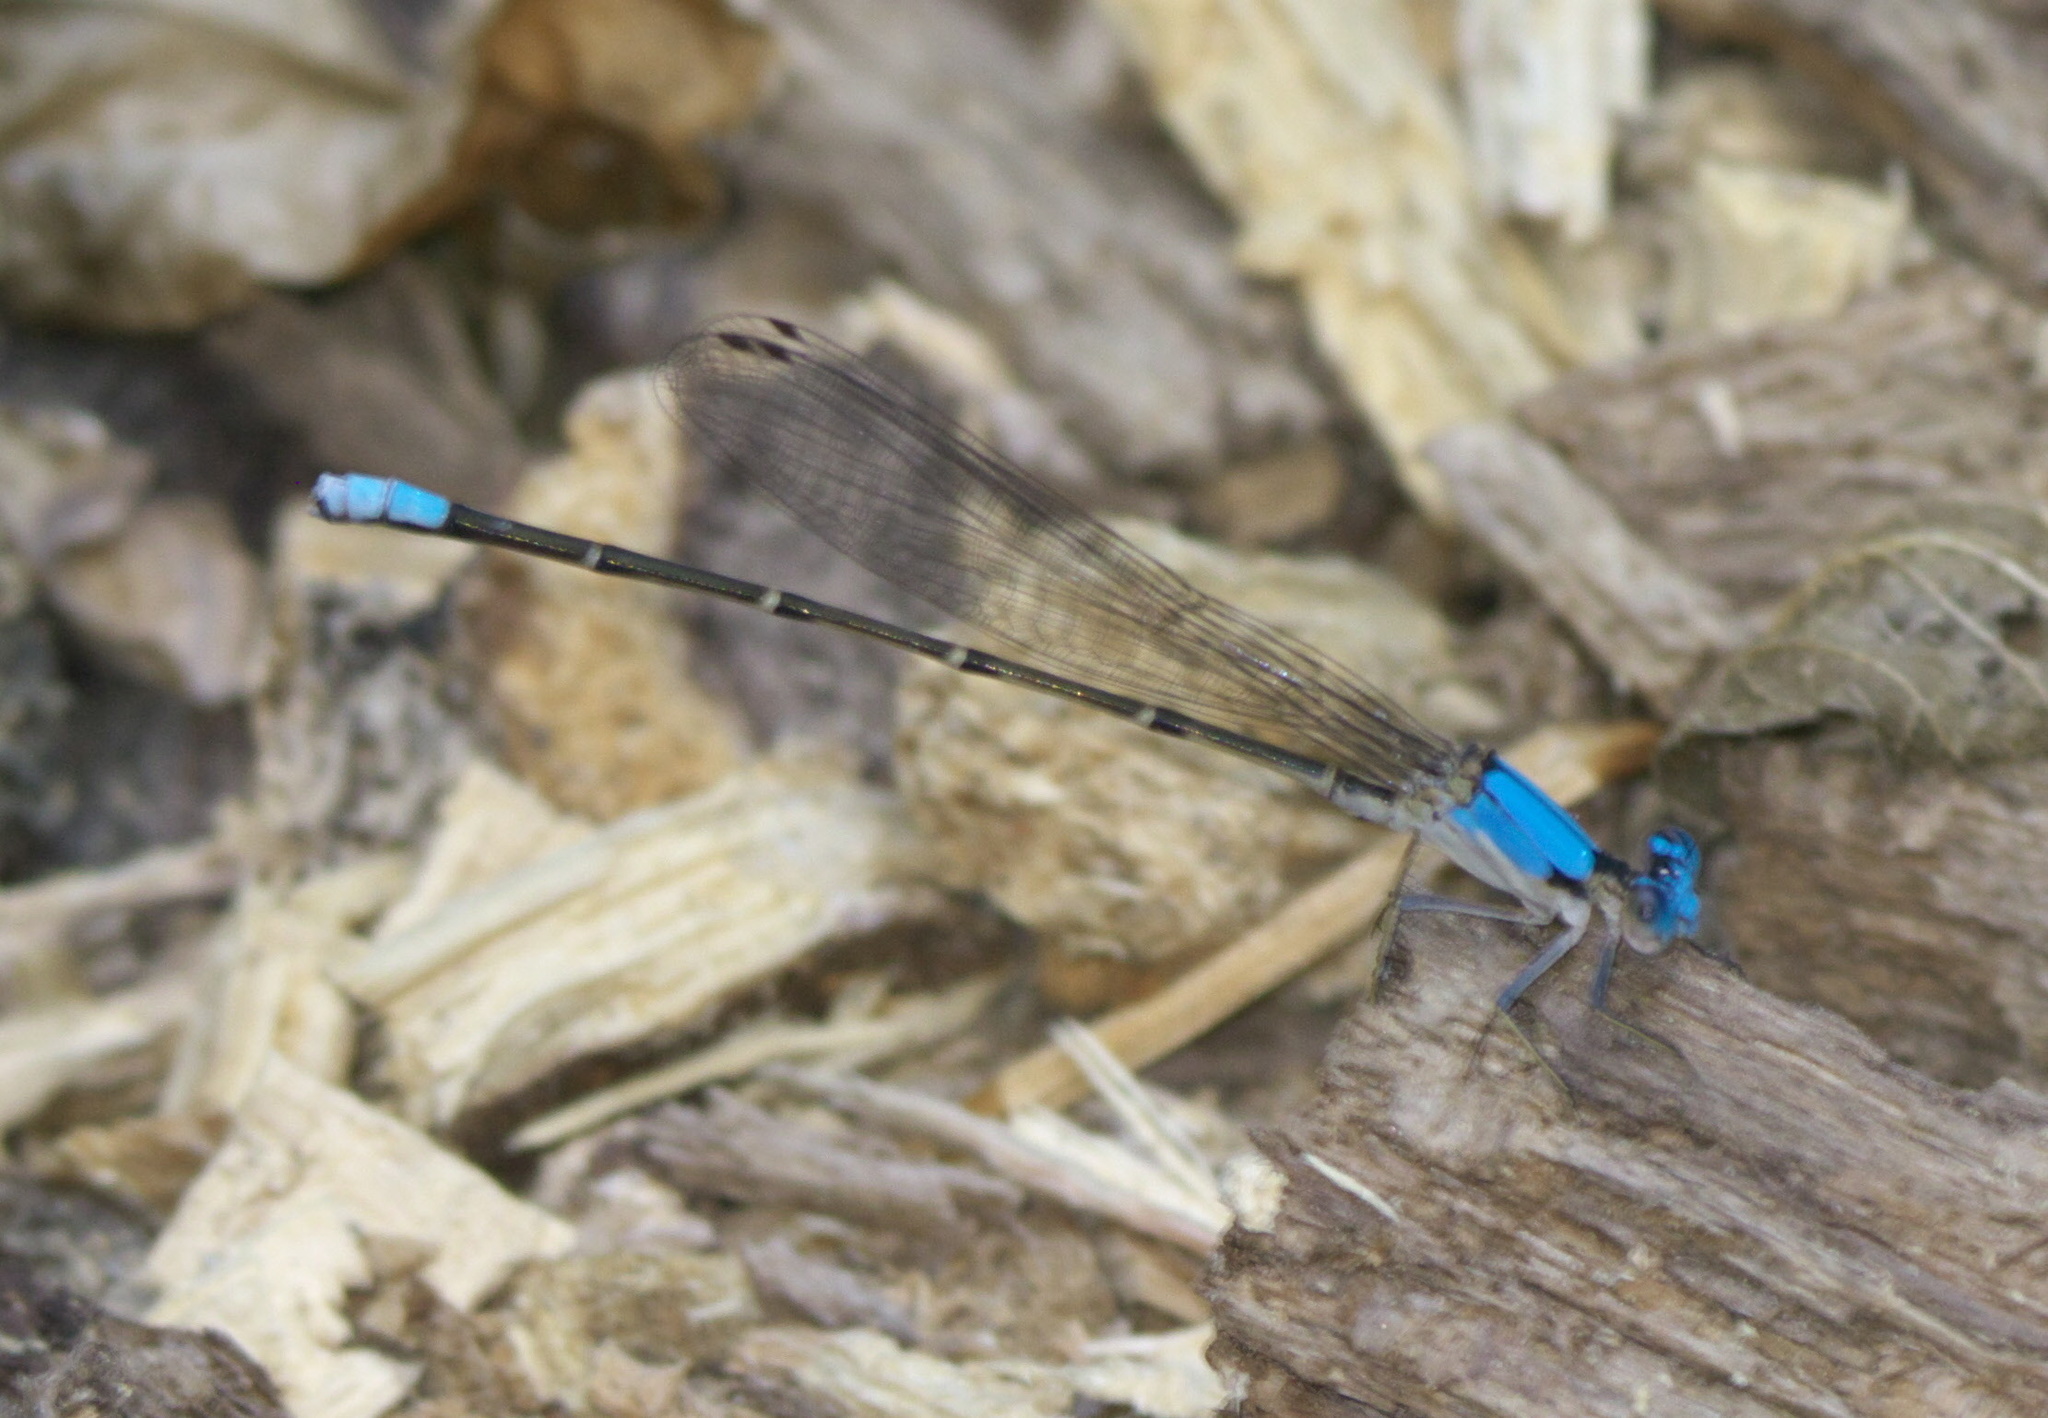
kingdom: Animalia
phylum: Arthropoda
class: Insecta
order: Odonata
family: Coenagrionidae
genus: Argia
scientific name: Argia apicalis
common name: Blue-fronted dancer
